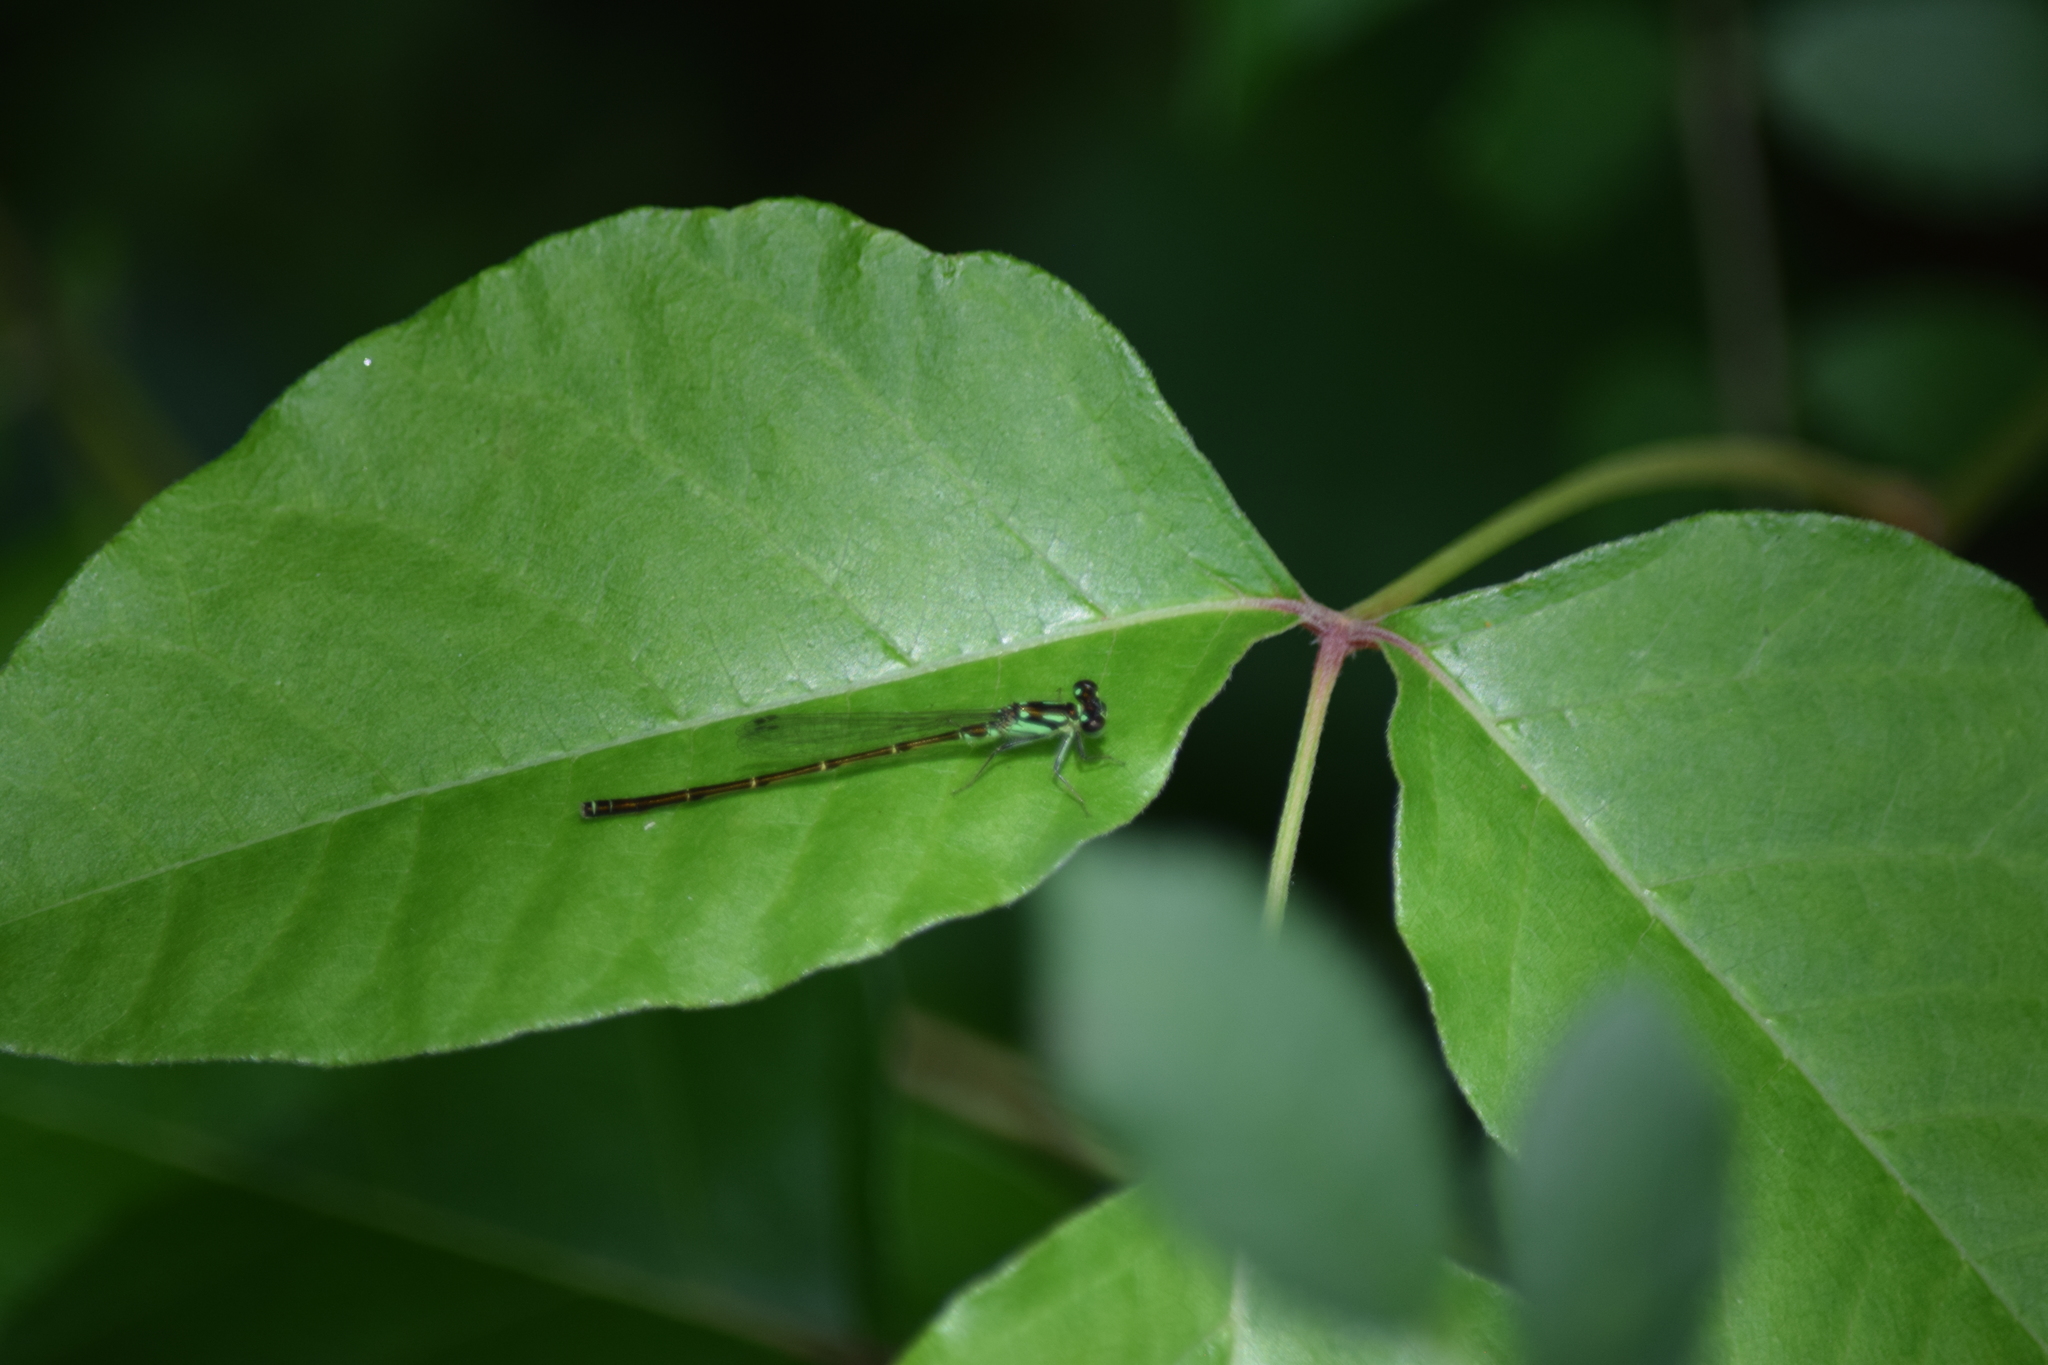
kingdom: Animalia
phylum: Arthropoda
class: Insecta
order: Odonata
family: Coenagrionidae
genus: Ischnura
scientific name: Ischnura posita
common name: Fragile forktail
